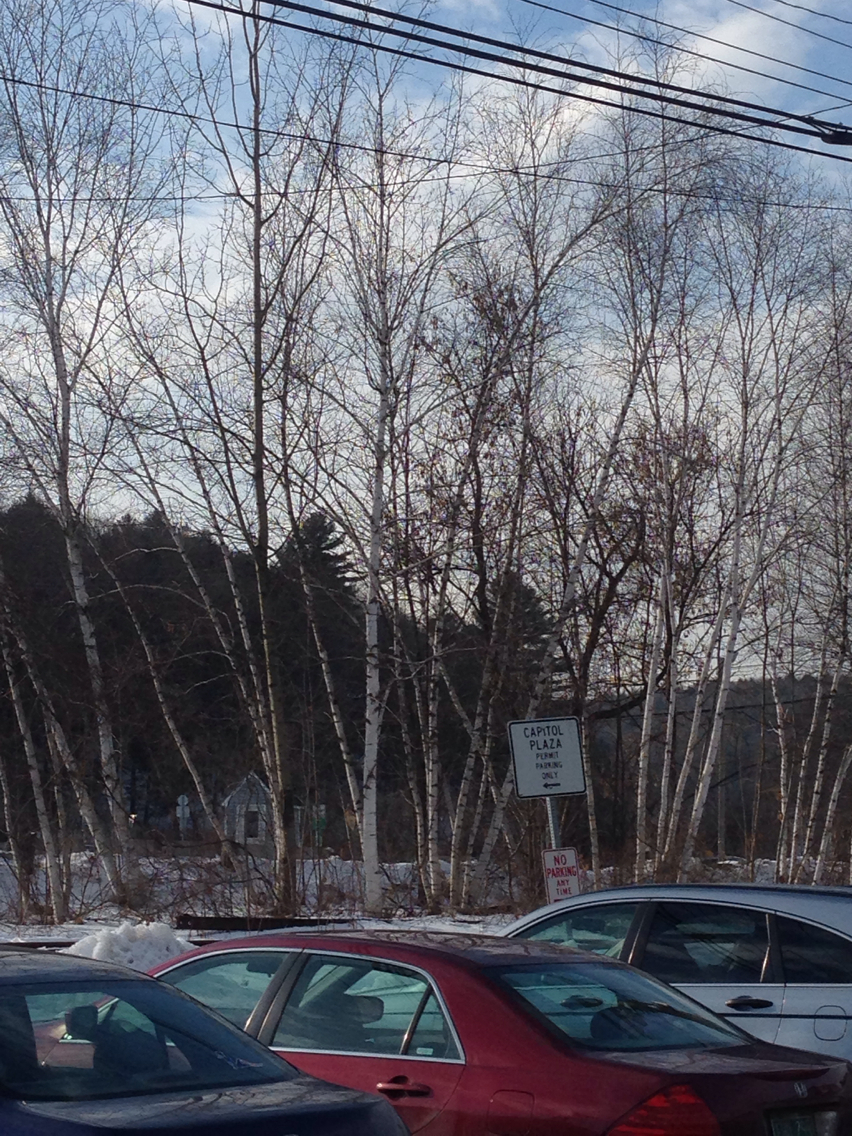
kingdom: Plantae
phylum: Tracheophyta
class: Magnoliopsida
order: Fagales
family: Betulaceae
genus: Betula
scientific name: Betula papyrifera
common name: Paper birch
